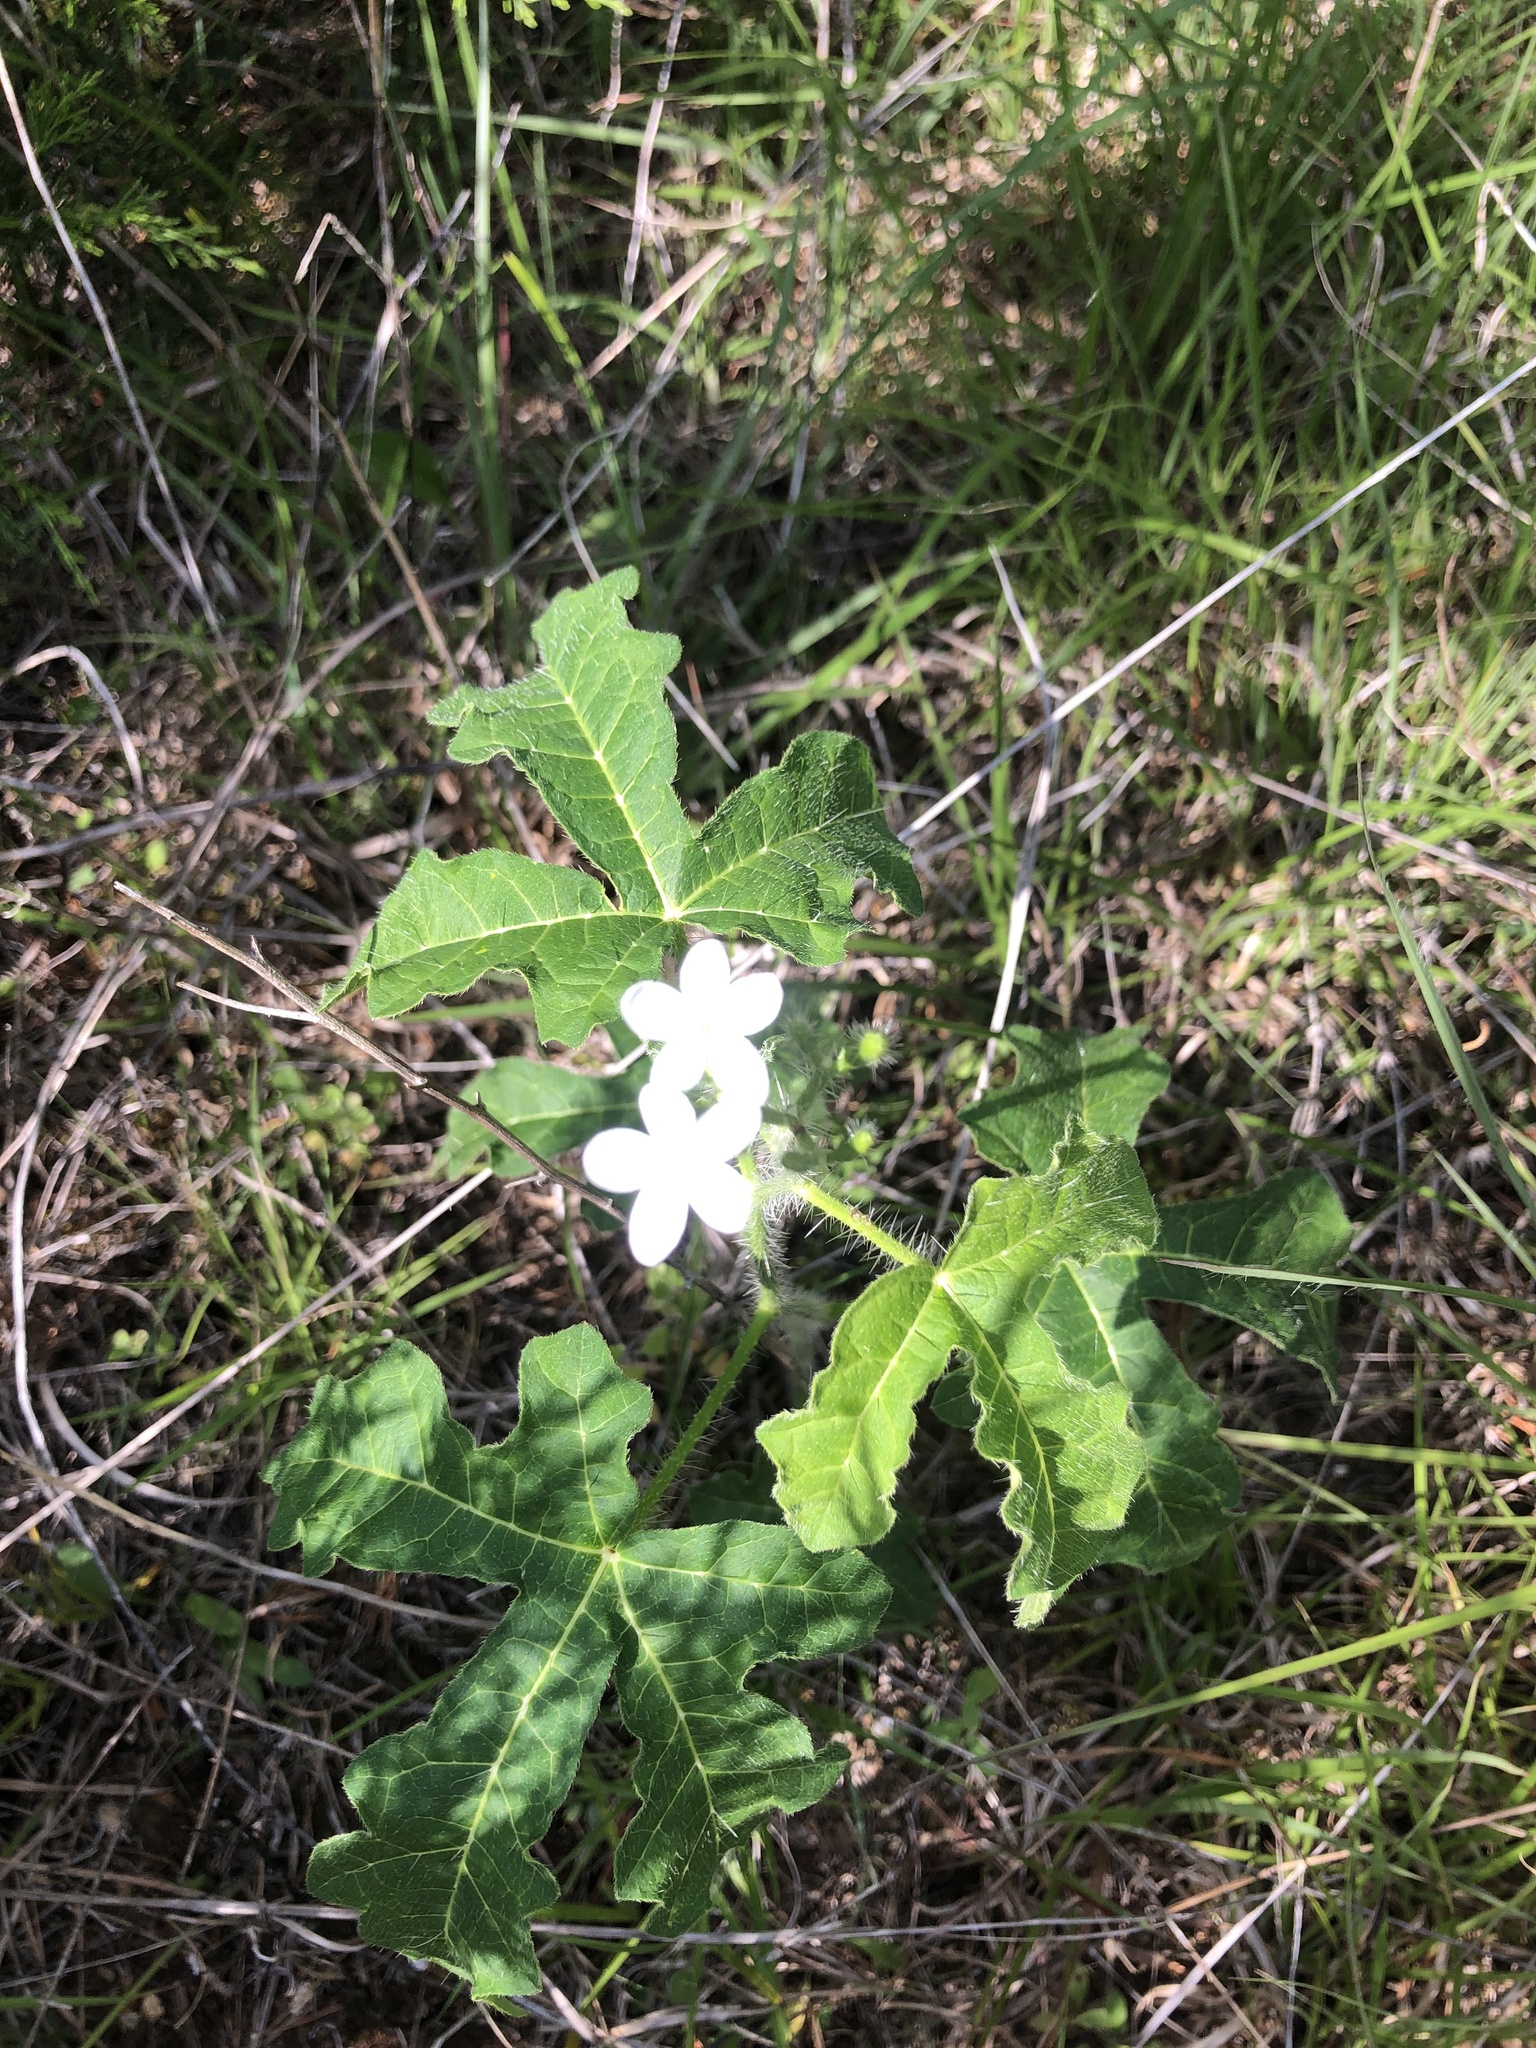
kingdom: Plantae
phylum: Tracheophyta
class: Magnoliopsida
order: Malpighiales
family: Euphorbiaceae
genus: Cnidoscolus
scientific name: Cnidoscolus stimulosus
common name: Bull-nettle
